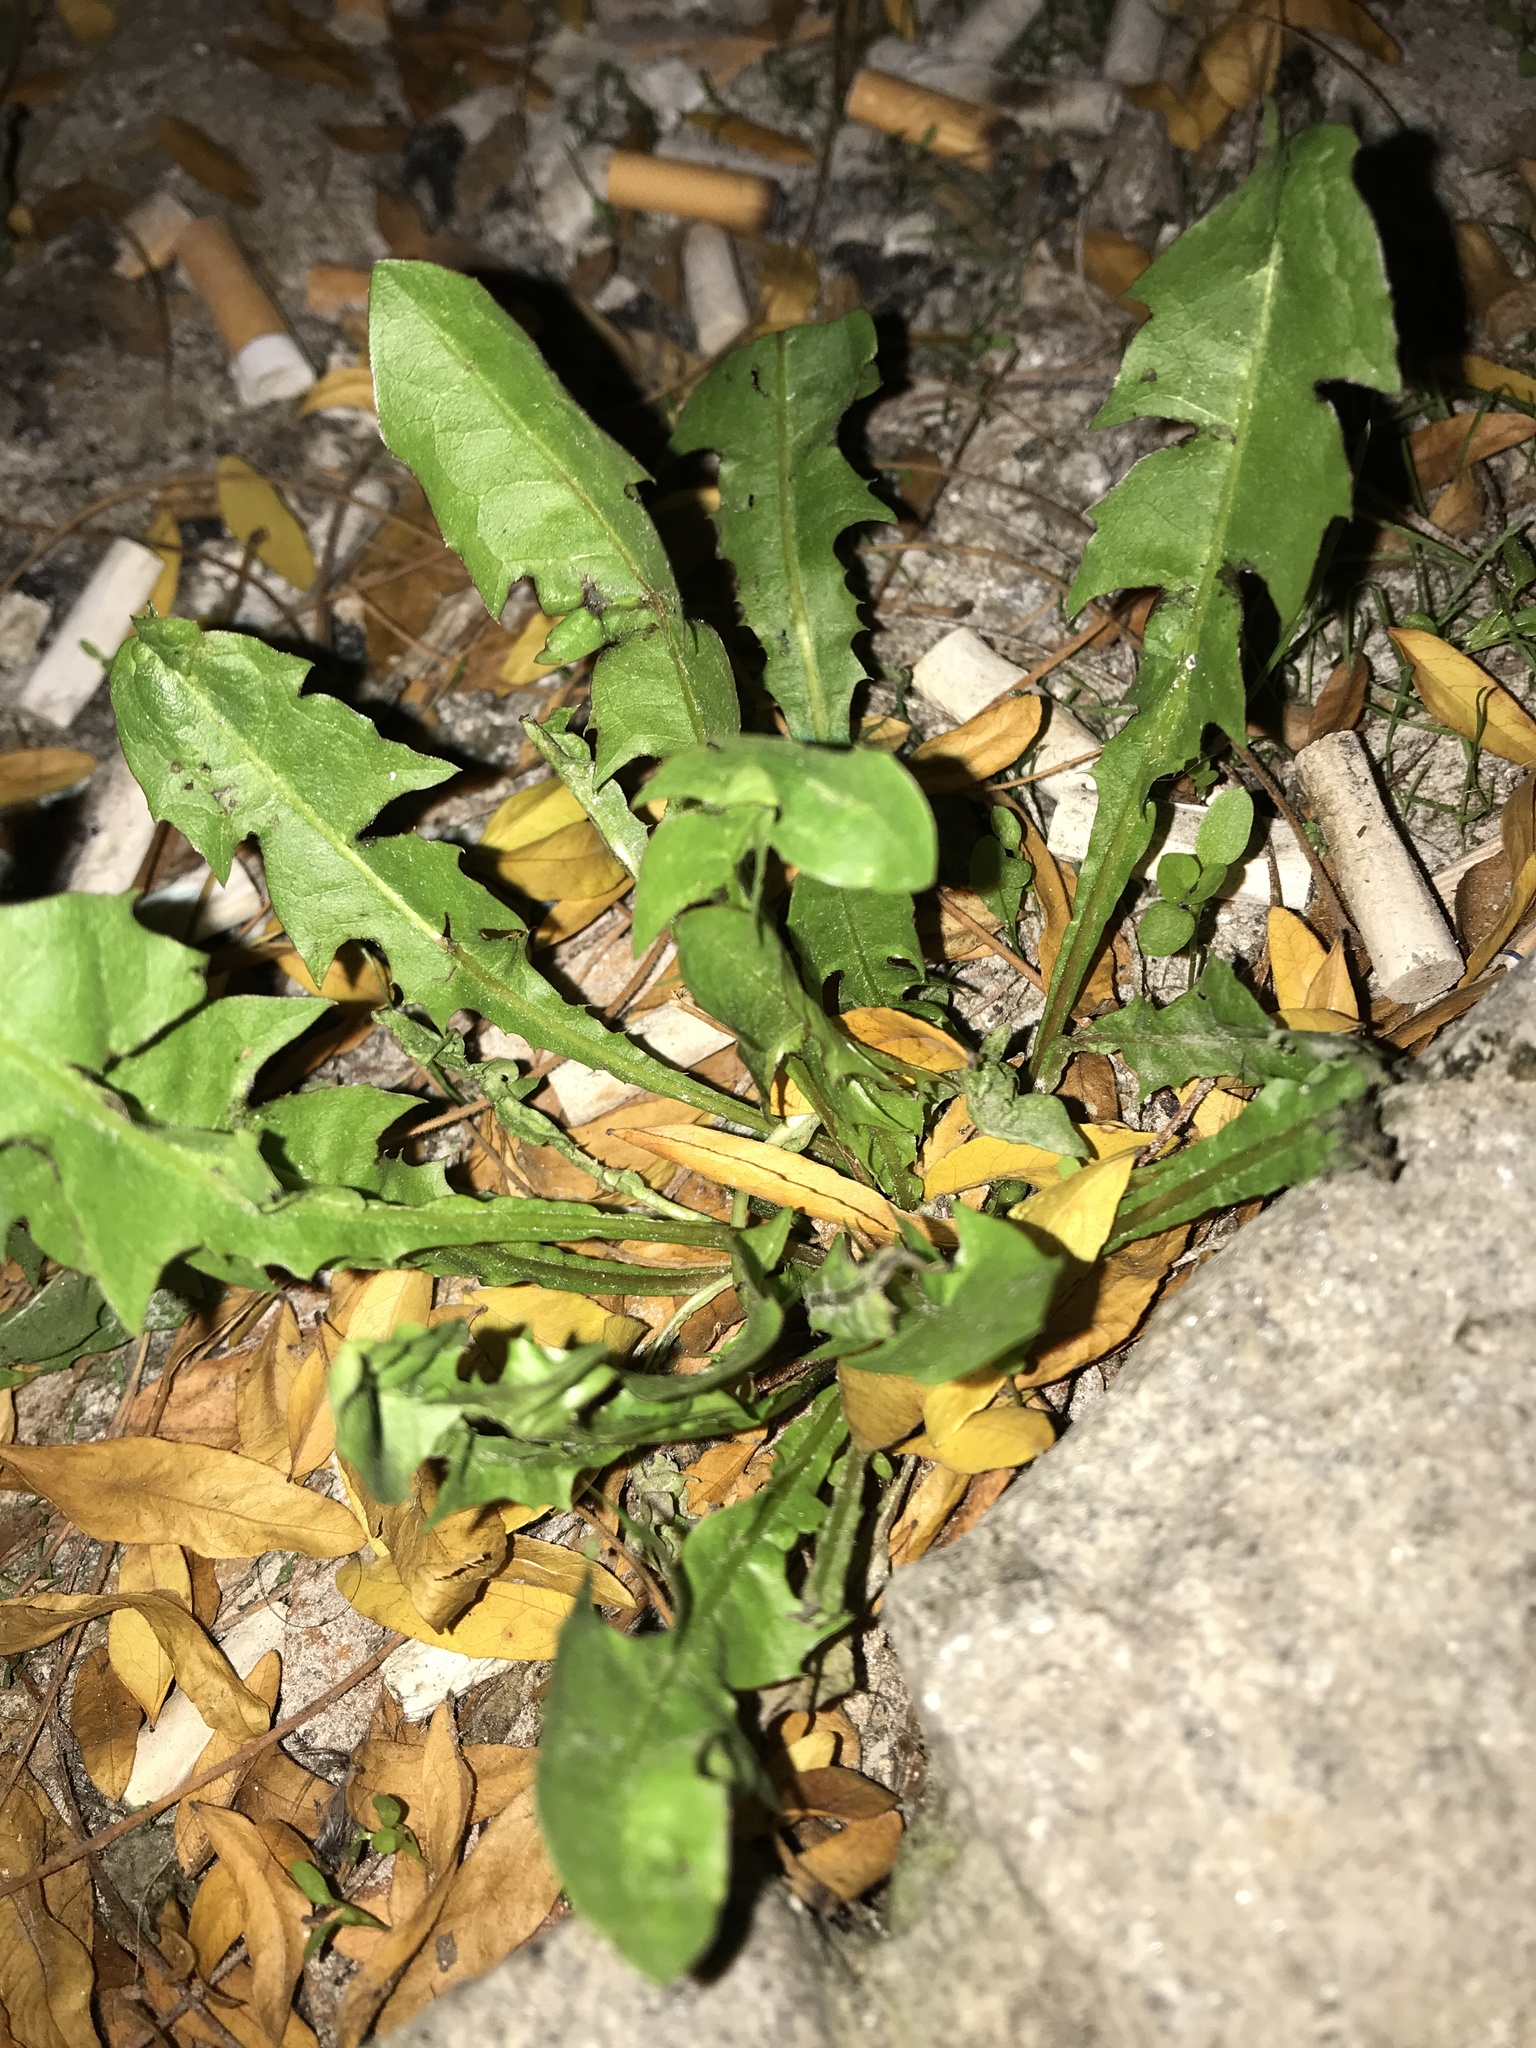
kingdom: Plantae
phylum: Tracheophyta
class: Magnoliopsida
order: Asterales
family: Asteraceae
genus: Taraxacum
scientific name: Taraxacum officinale
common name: Common dandelion
